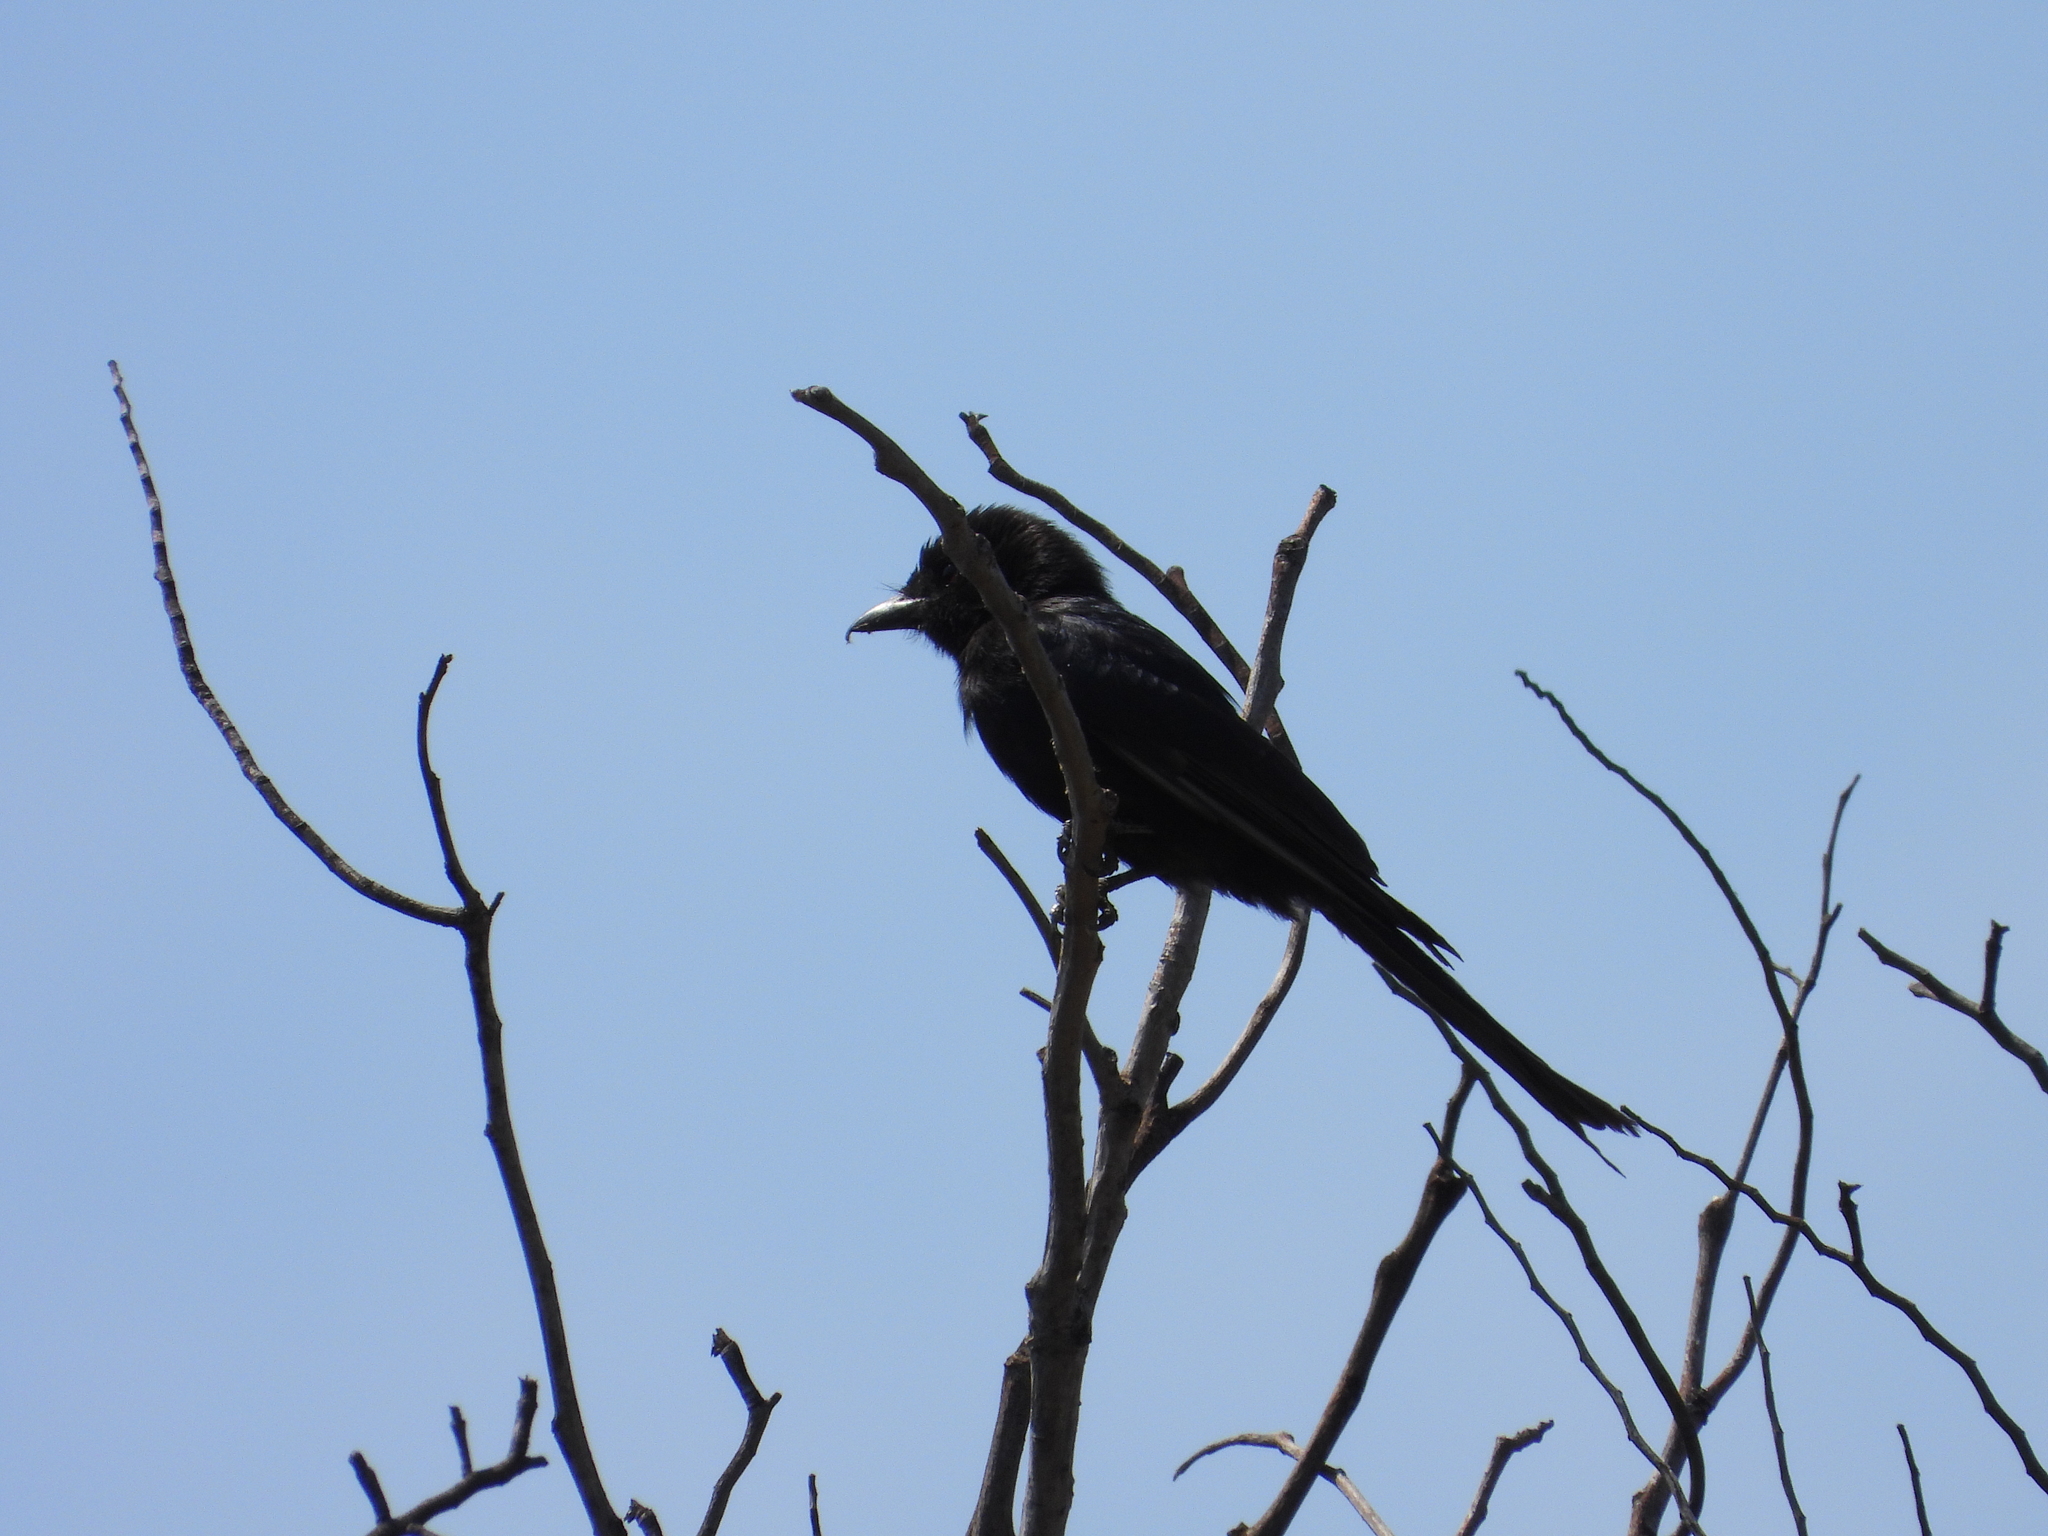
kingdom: Animalia
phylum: Chordata
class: Aves
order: Passeriformes
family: Dicruridae
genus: Dicrurus
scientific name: Dicrurus adsimilis
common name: Fork-tailed drongo
